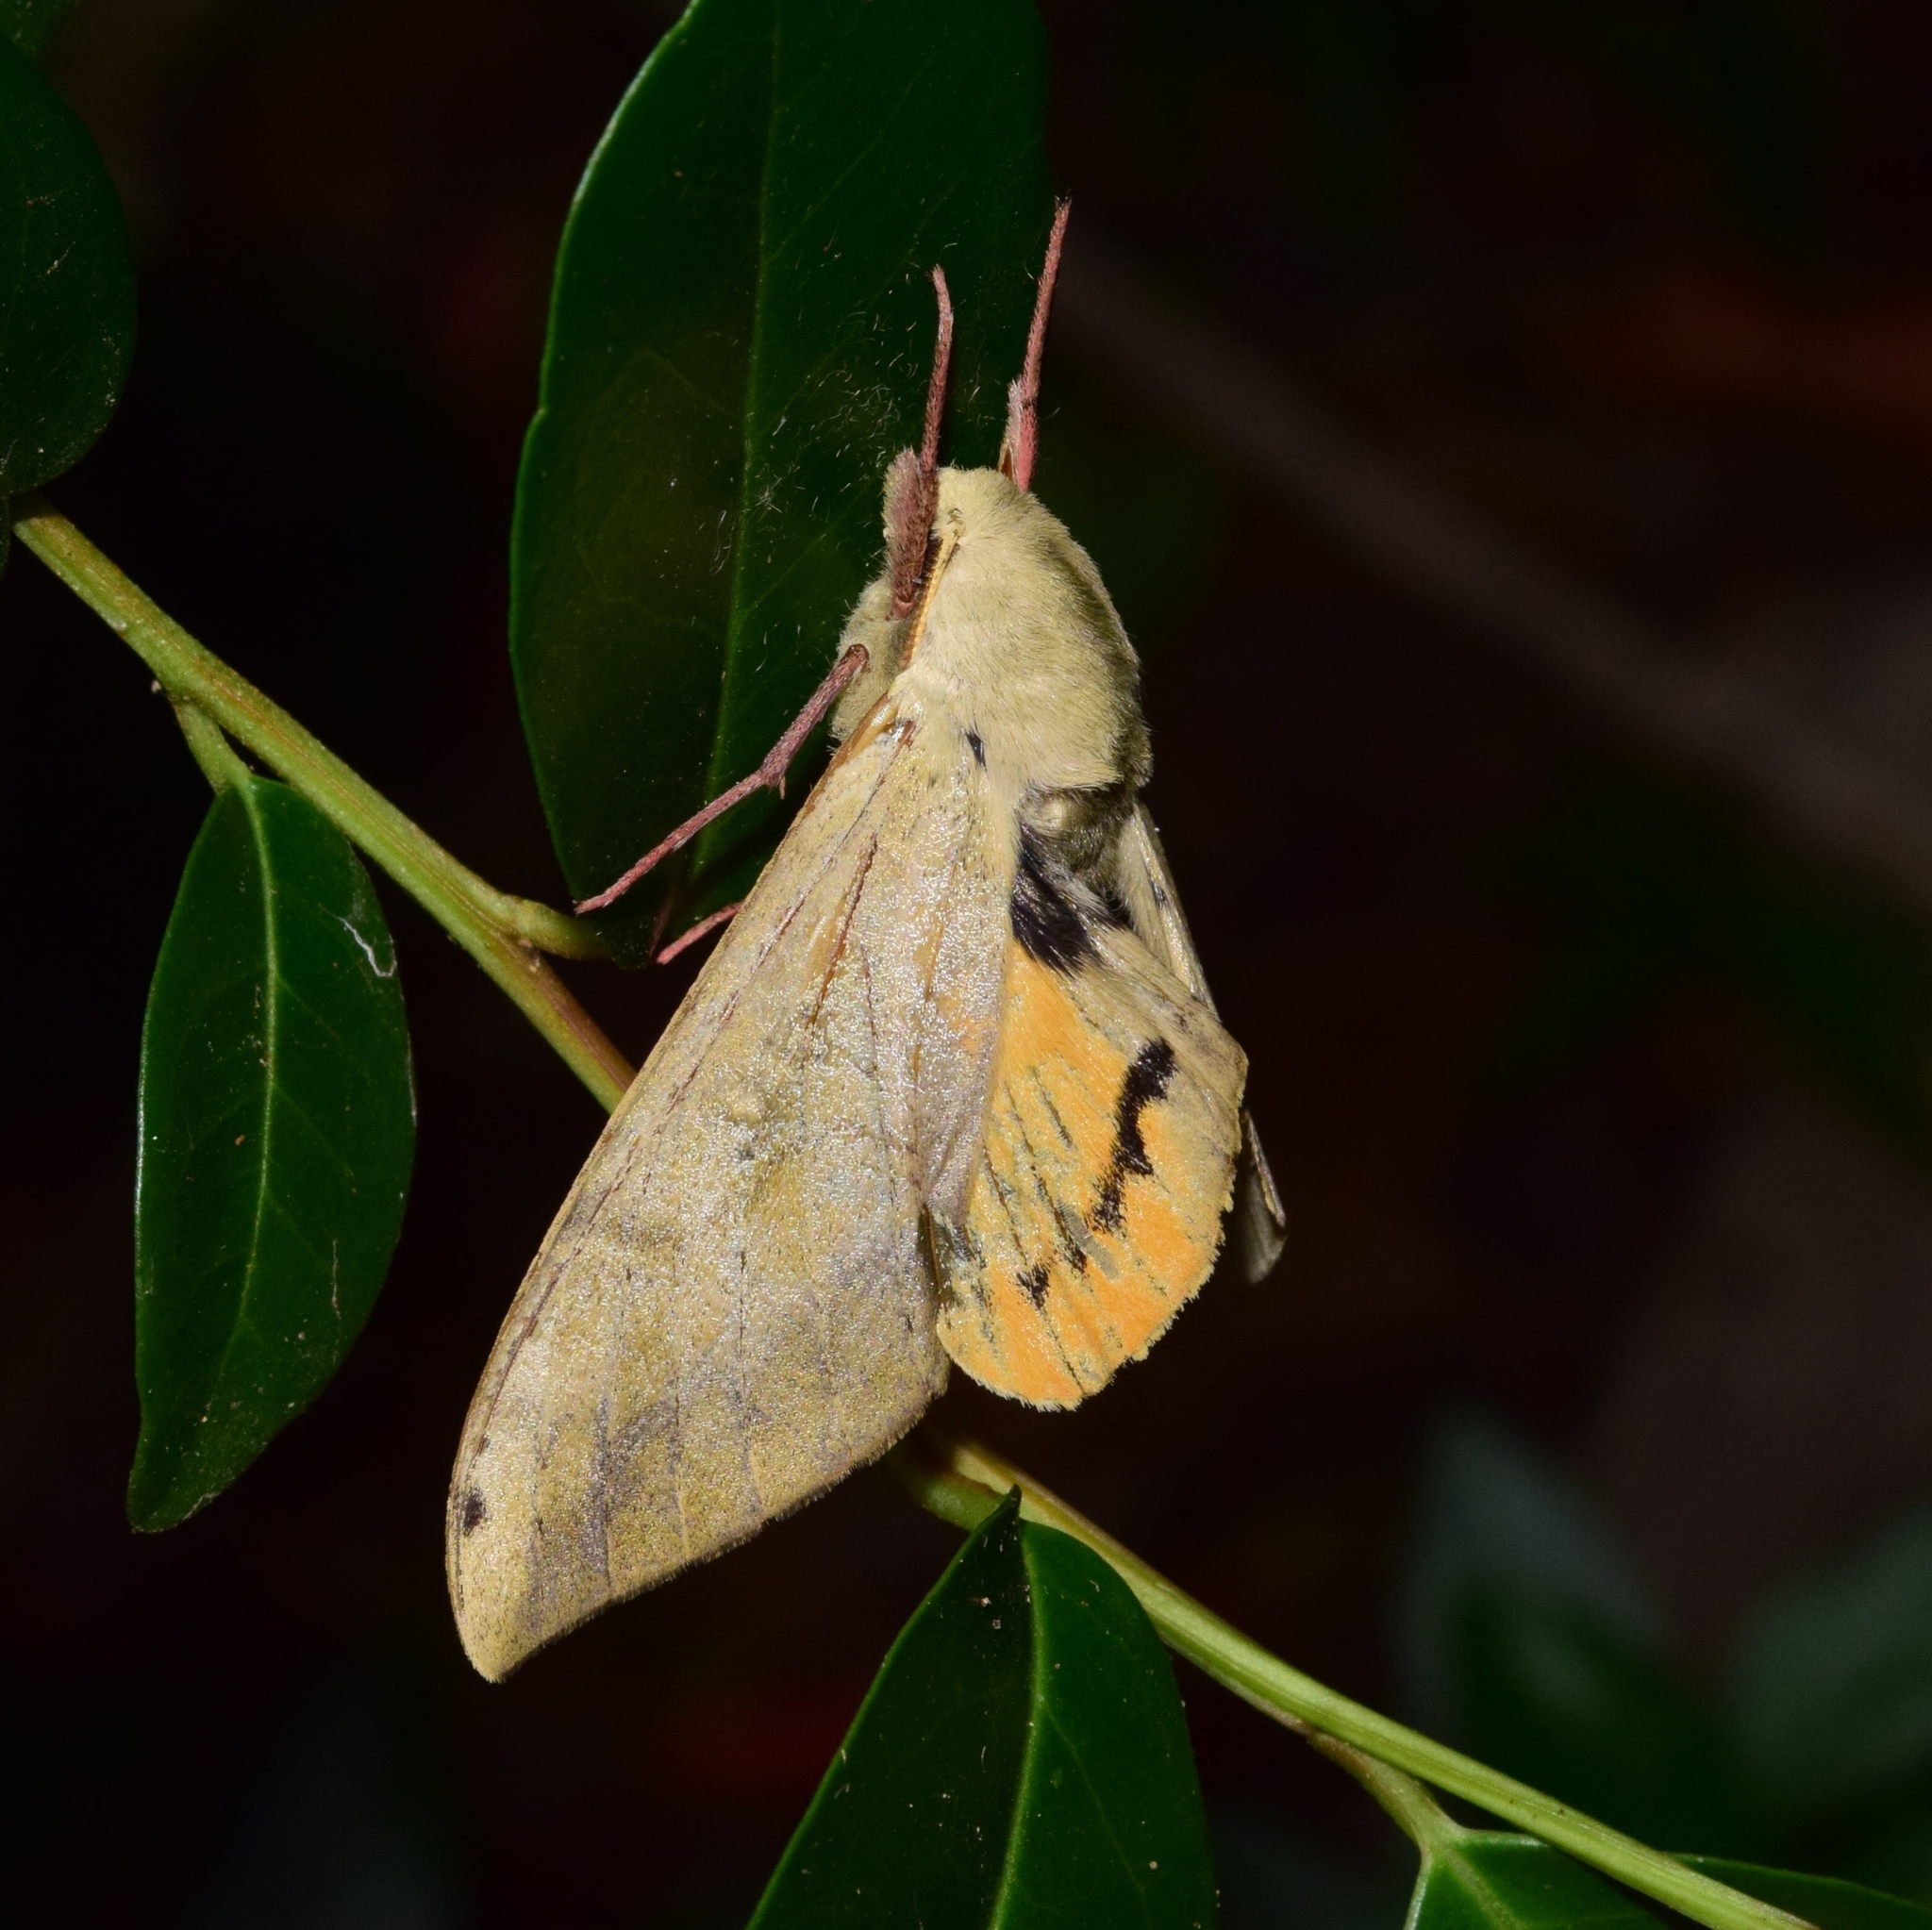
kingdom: Animalia
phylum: Arthropoda
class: Insecta
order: Lepidoptera
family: Sphingidae
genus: Pseudoclanis
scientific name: Pseudoclanis postica
